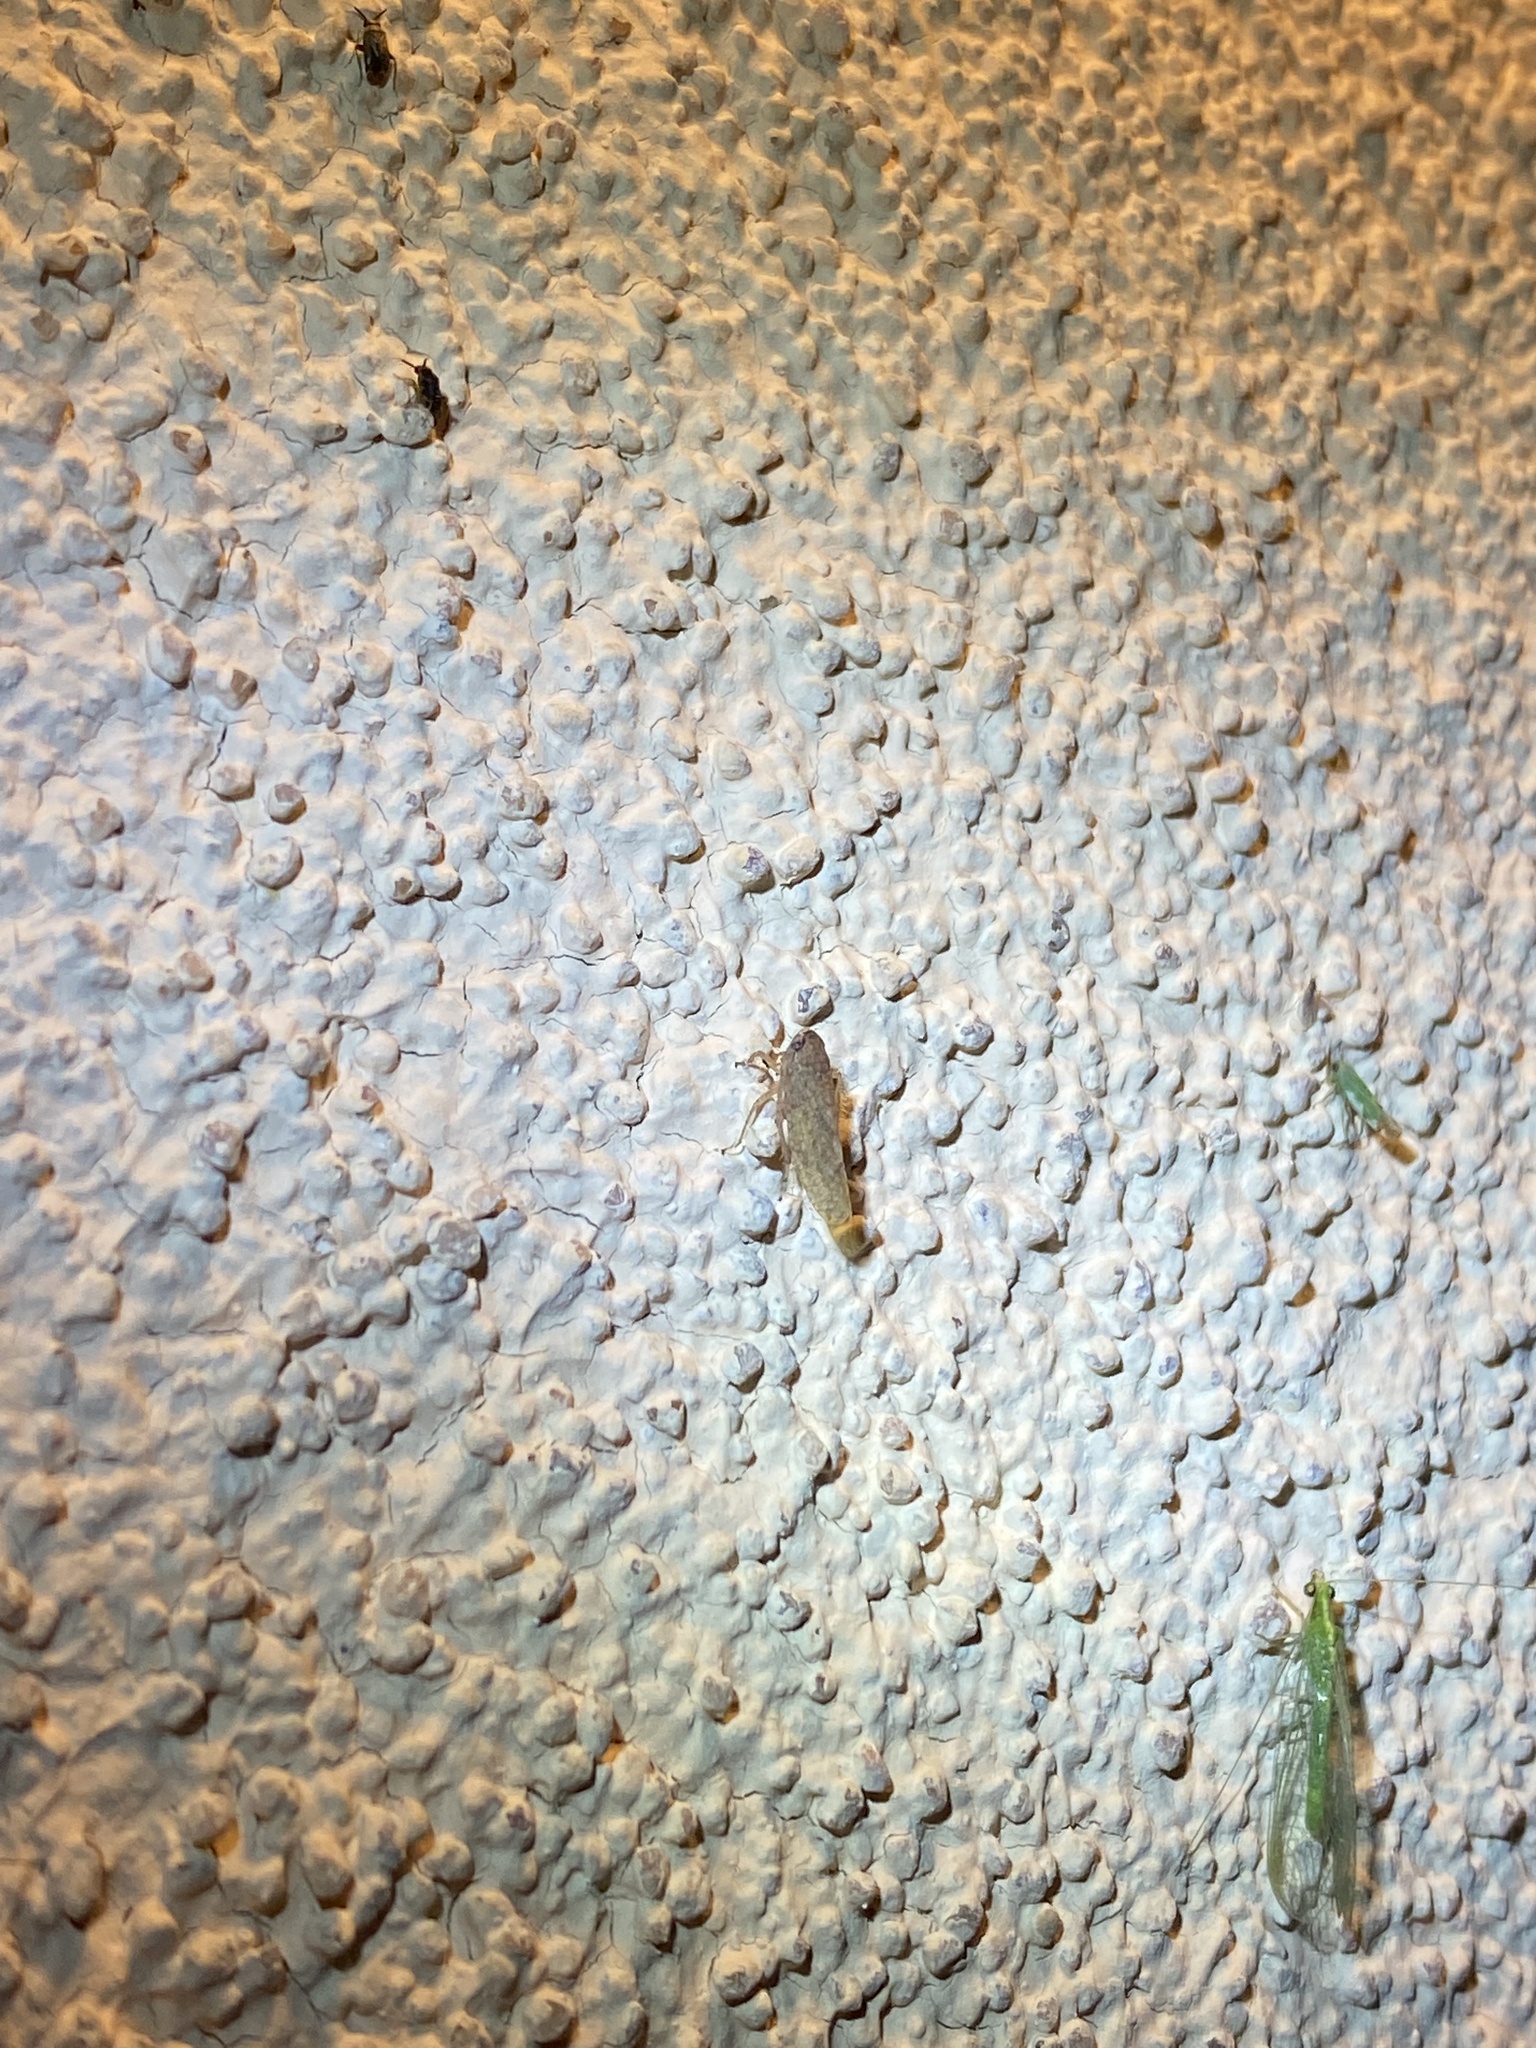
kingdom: Animalia
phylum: Arthropoda
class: Insecta
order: Hemiptera
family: Cicadellidae
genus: Texananus
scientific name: Texananus
